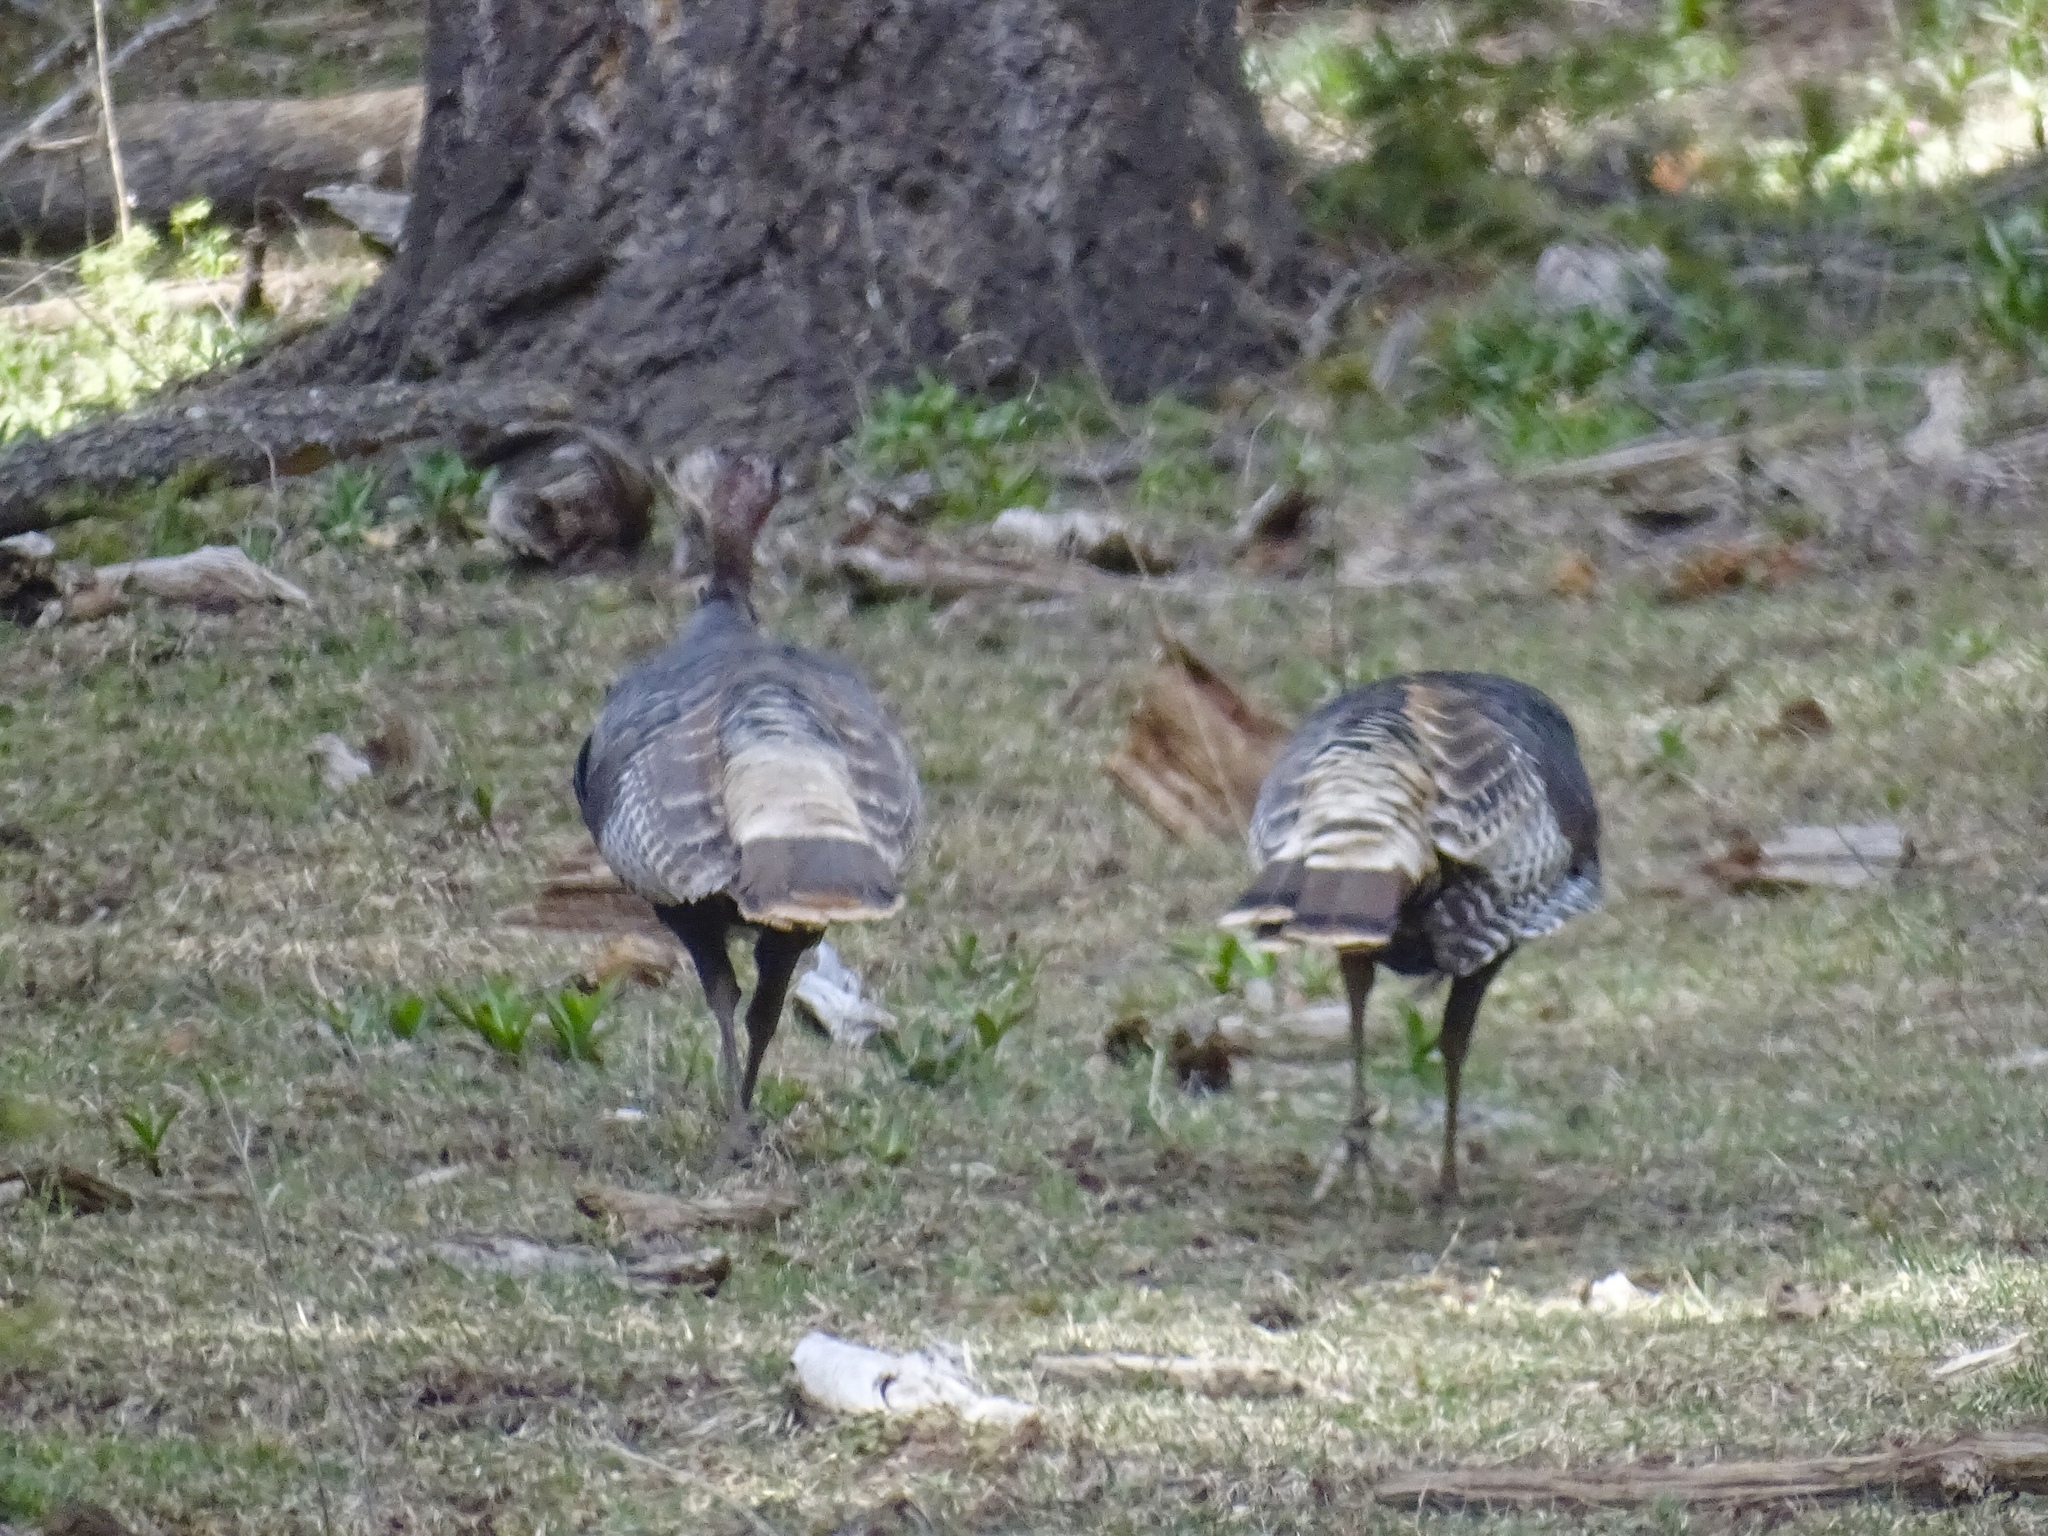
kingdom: Animalia
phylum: Chordata
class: Aves
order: Galliformes
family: Phasianidae
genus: Meleagris
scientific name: Meleagris gallopavo
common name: Wild turkey
